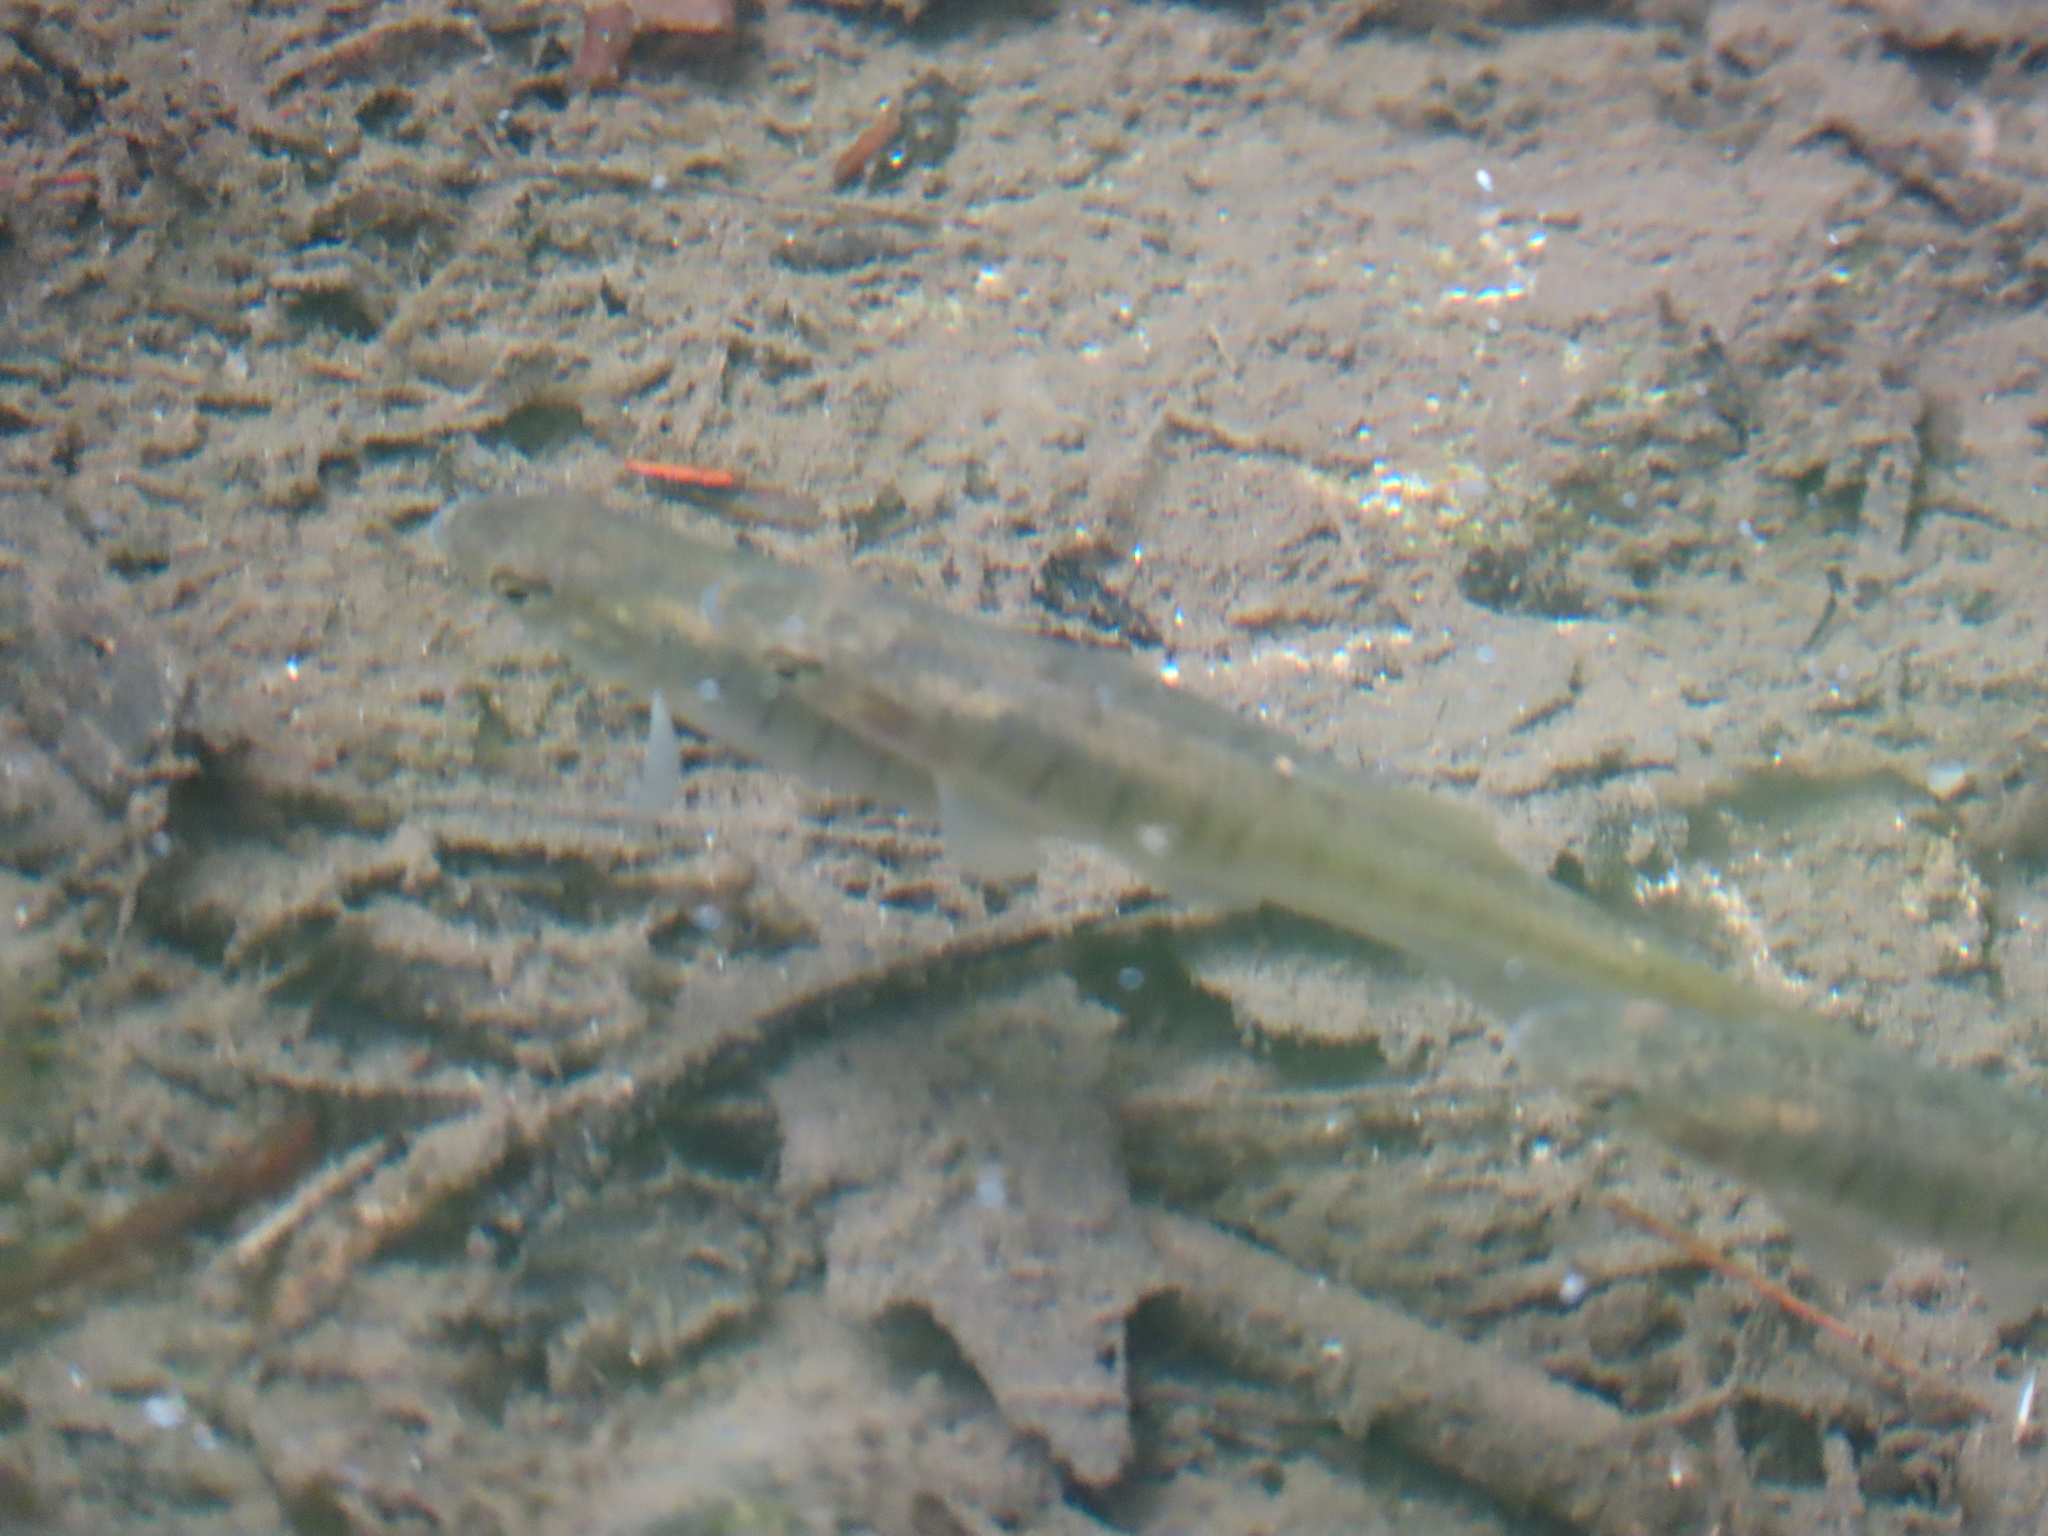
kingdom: Animalia
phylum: Chordata
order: Cyprinodontiformes
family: Fundulidae
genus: Fundulus
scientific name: Fundulus diaphanus
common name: Banded killifish
